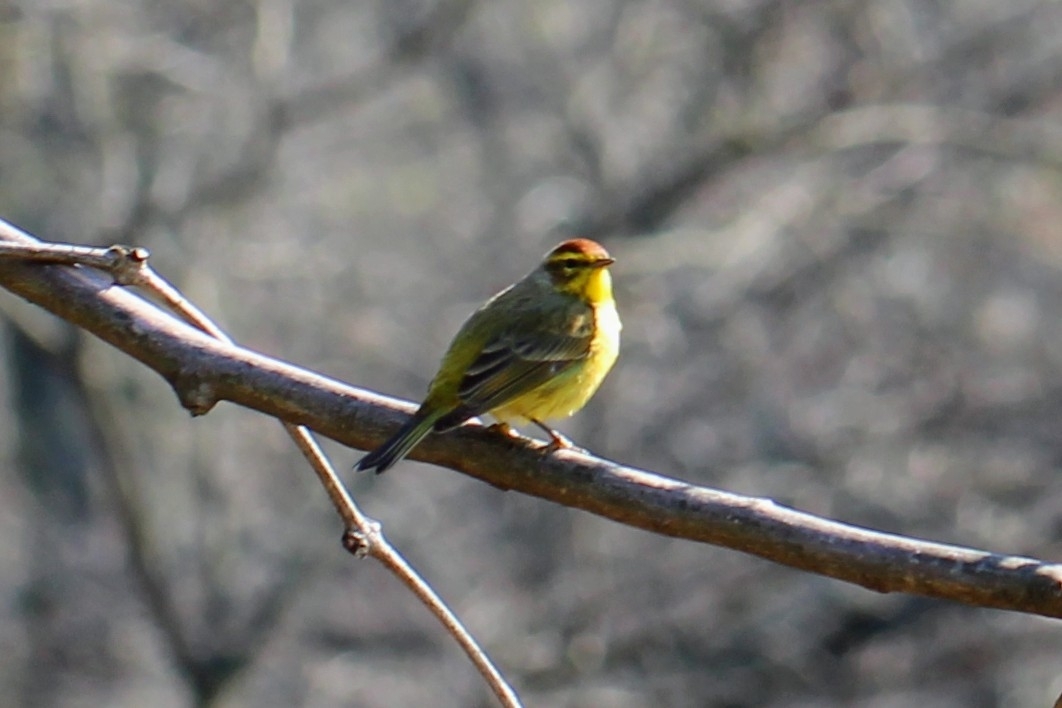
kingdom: Animalia
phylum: Chordata
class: Aves
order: Passeriformes
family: Parulidae
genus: Setophaga
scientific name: Setophaga palmarum
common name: Palm warbler
